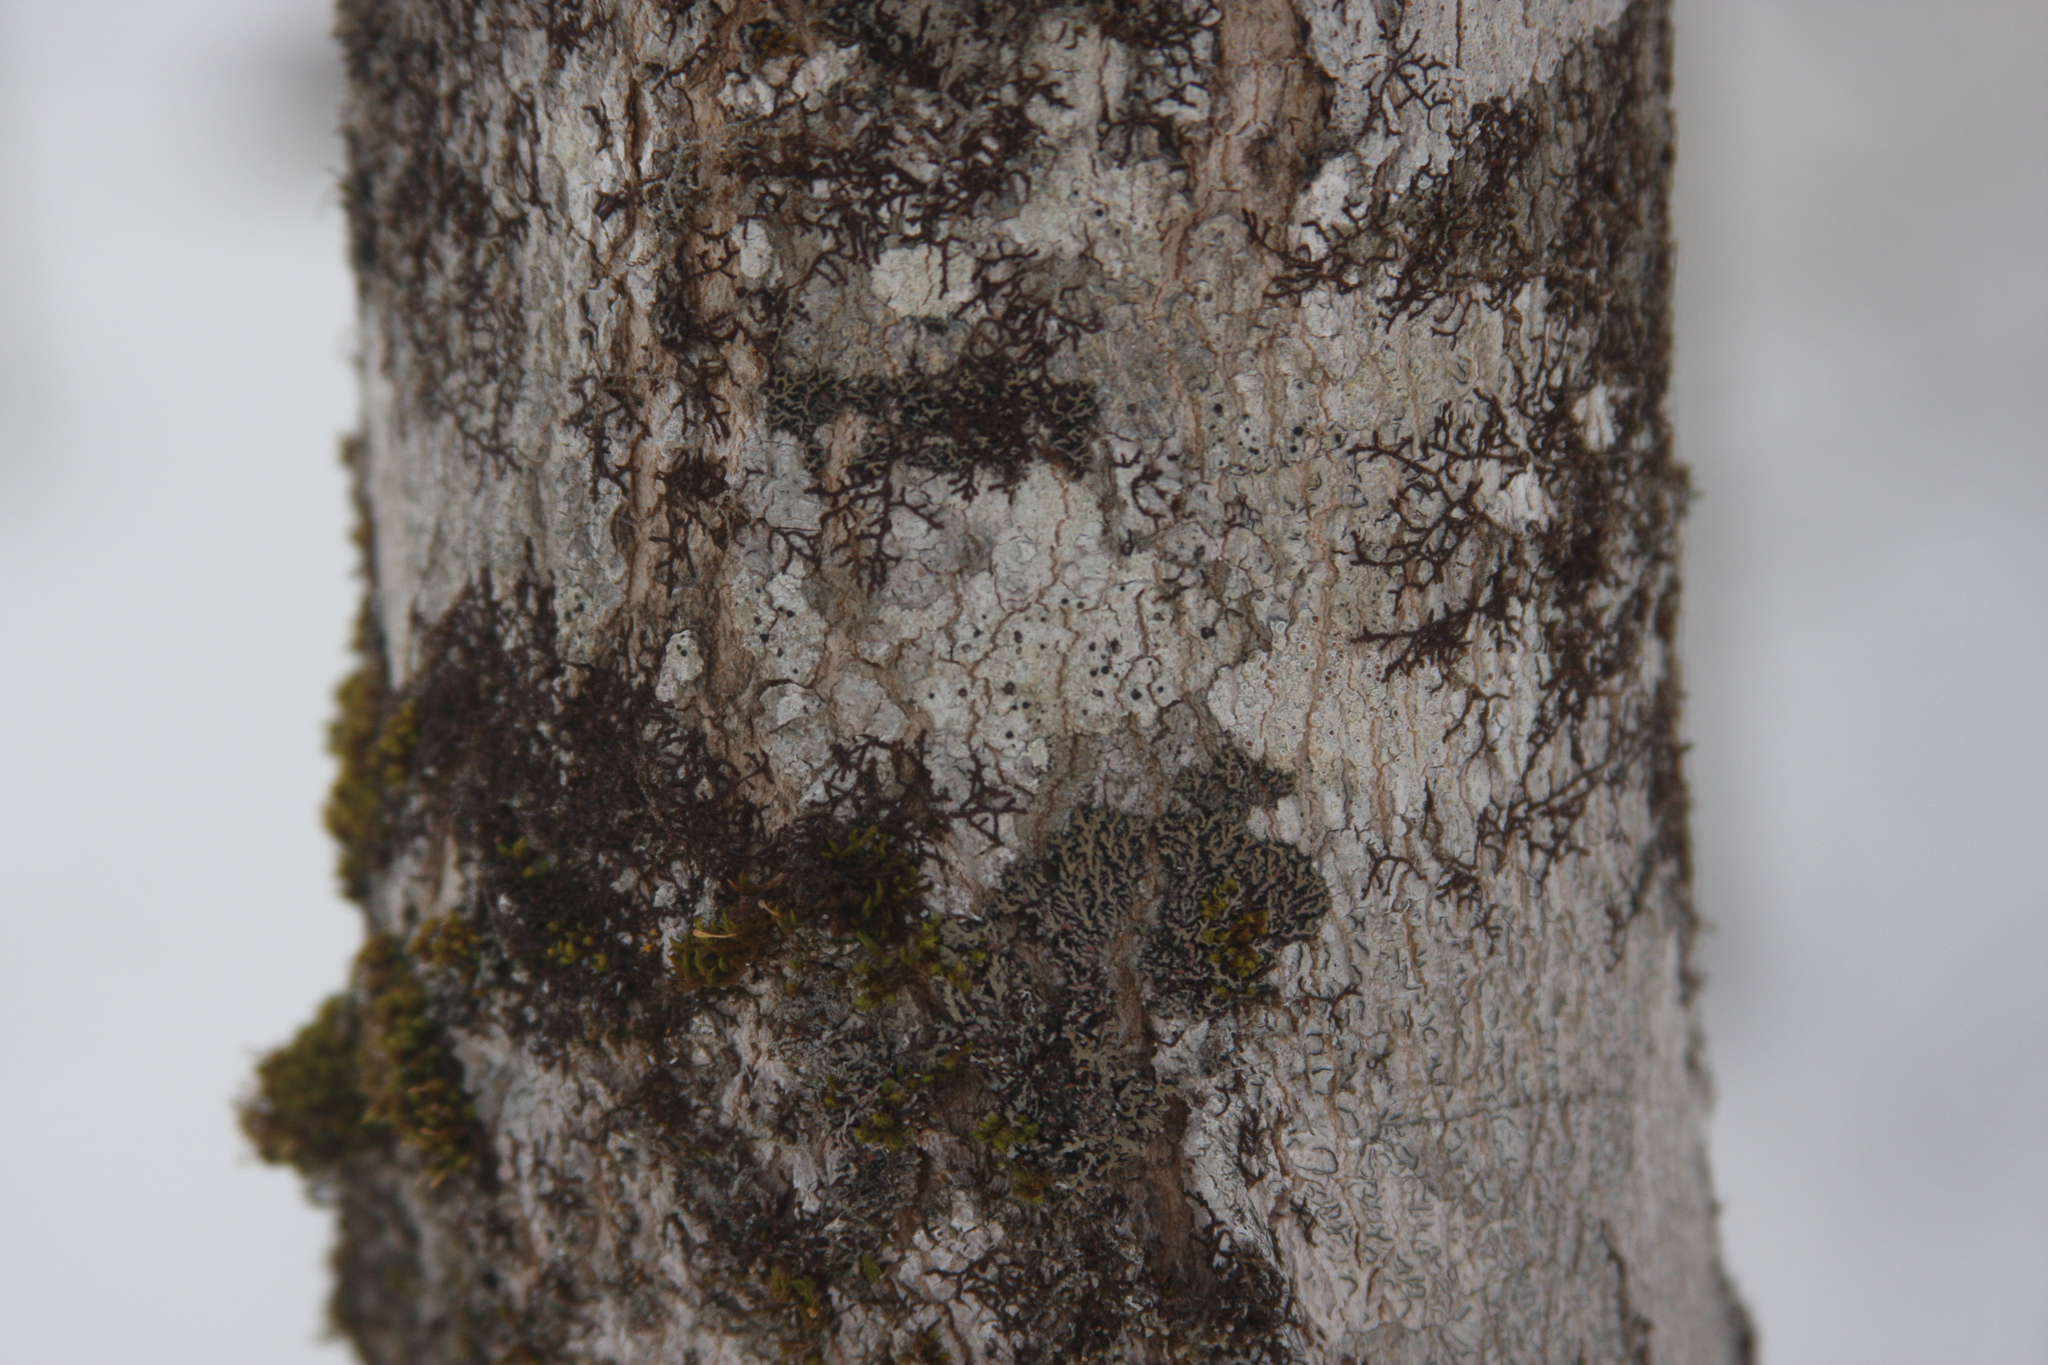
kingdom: Plantae
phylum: Marchantiophyta
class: Jungermanniopsida
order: Porellales
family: Frullaniaceae
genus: Frullania
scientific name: Frullania eboracensis
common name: New york scalewort
